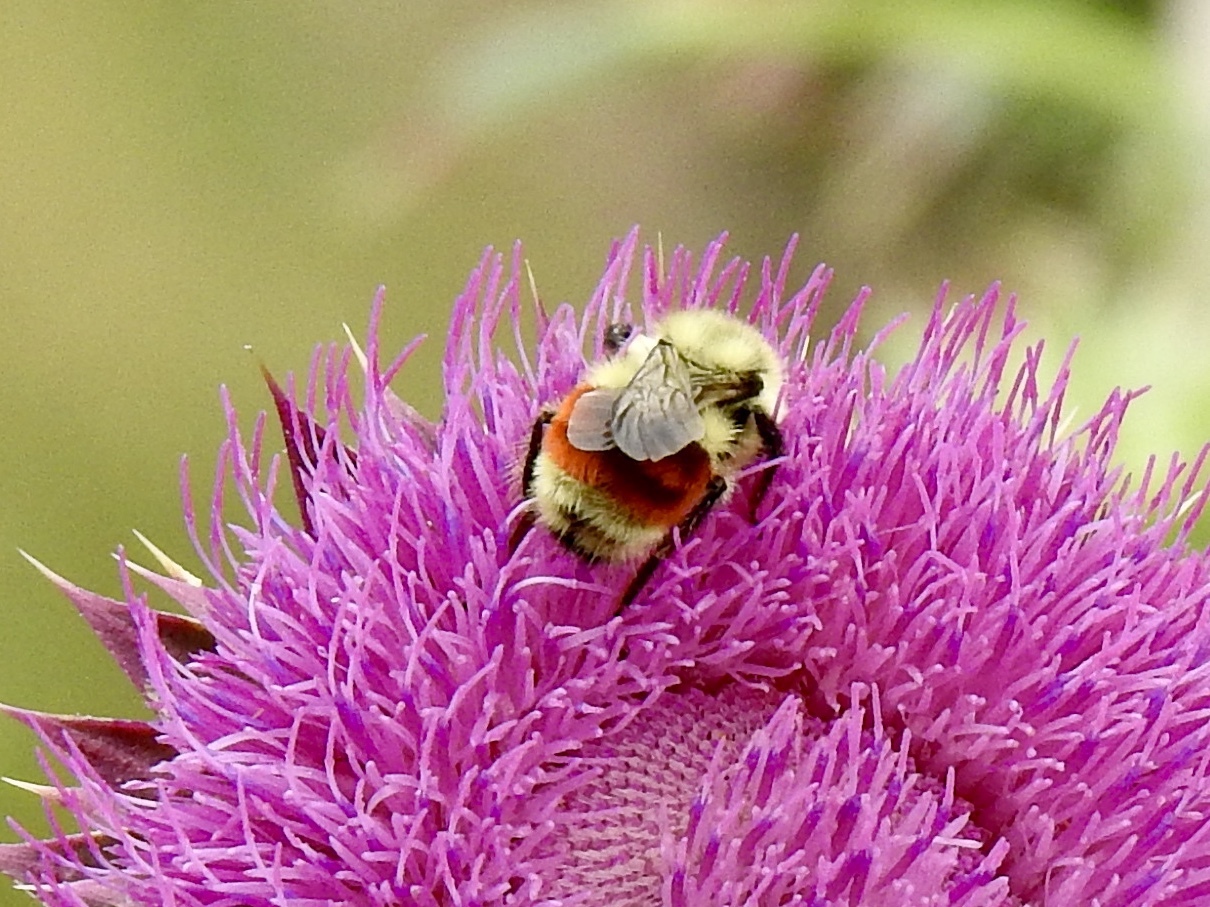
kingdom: Animalia
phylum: Arthropoda
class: Insecta
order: Hymenoptera
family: Apidae
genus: Bombus
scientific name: Bombus huntii
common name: Hunt bumble bee
